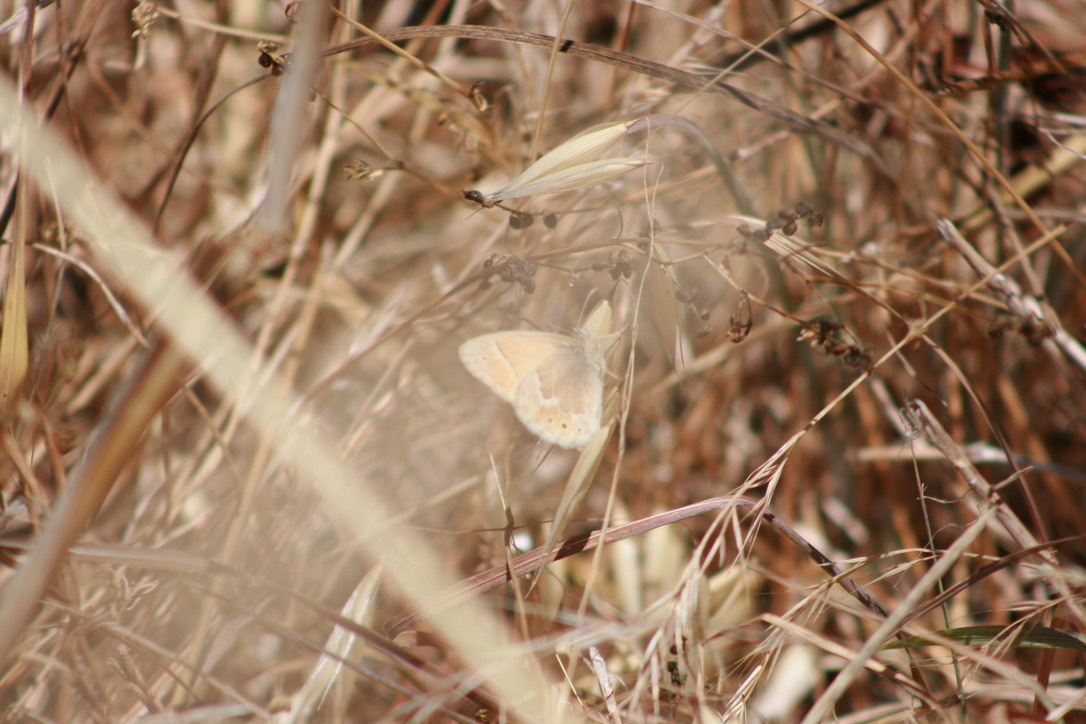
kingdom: Animalia
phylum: Arthropoda
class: Insecta
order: Lepidoptera
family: Nymphalidae
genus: Coenonympha
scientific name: Coenonympha california
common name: Common ringlet
